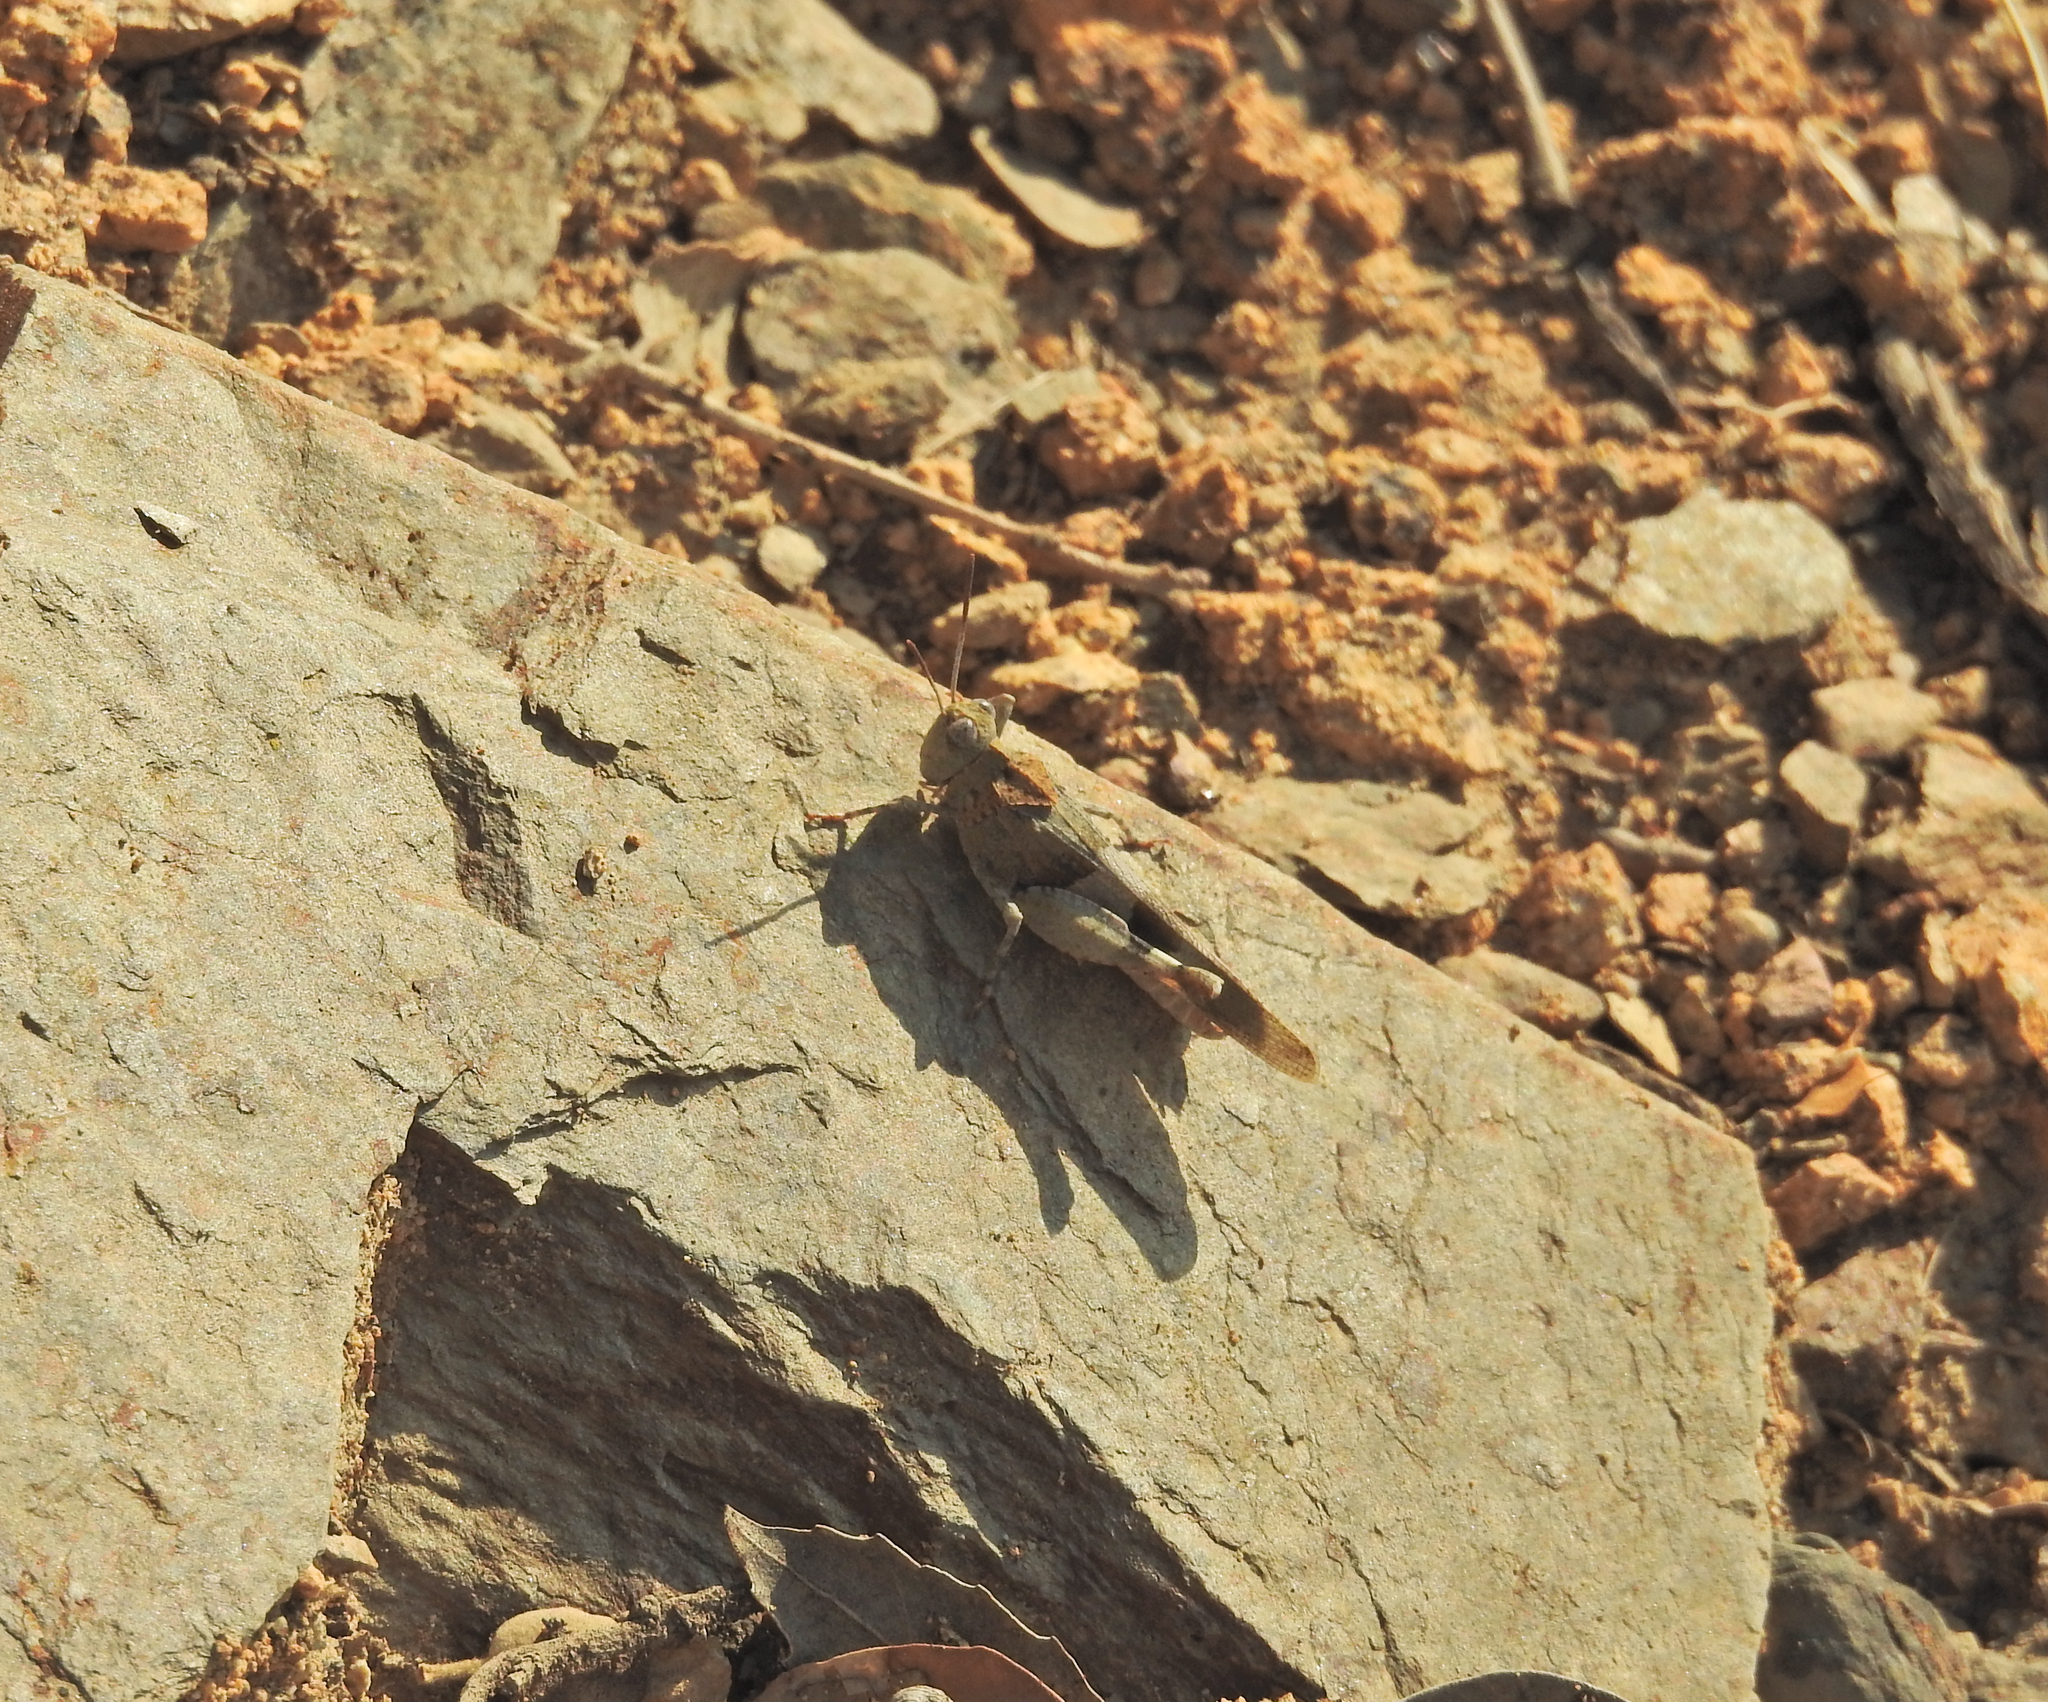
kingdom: Animalia
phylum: Arthropoda
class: Insecta
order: Orthoptera
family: Acrididae
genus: Oedipoda
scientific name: Oedipoda caerulescens
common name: Blue-winged grasshopper
